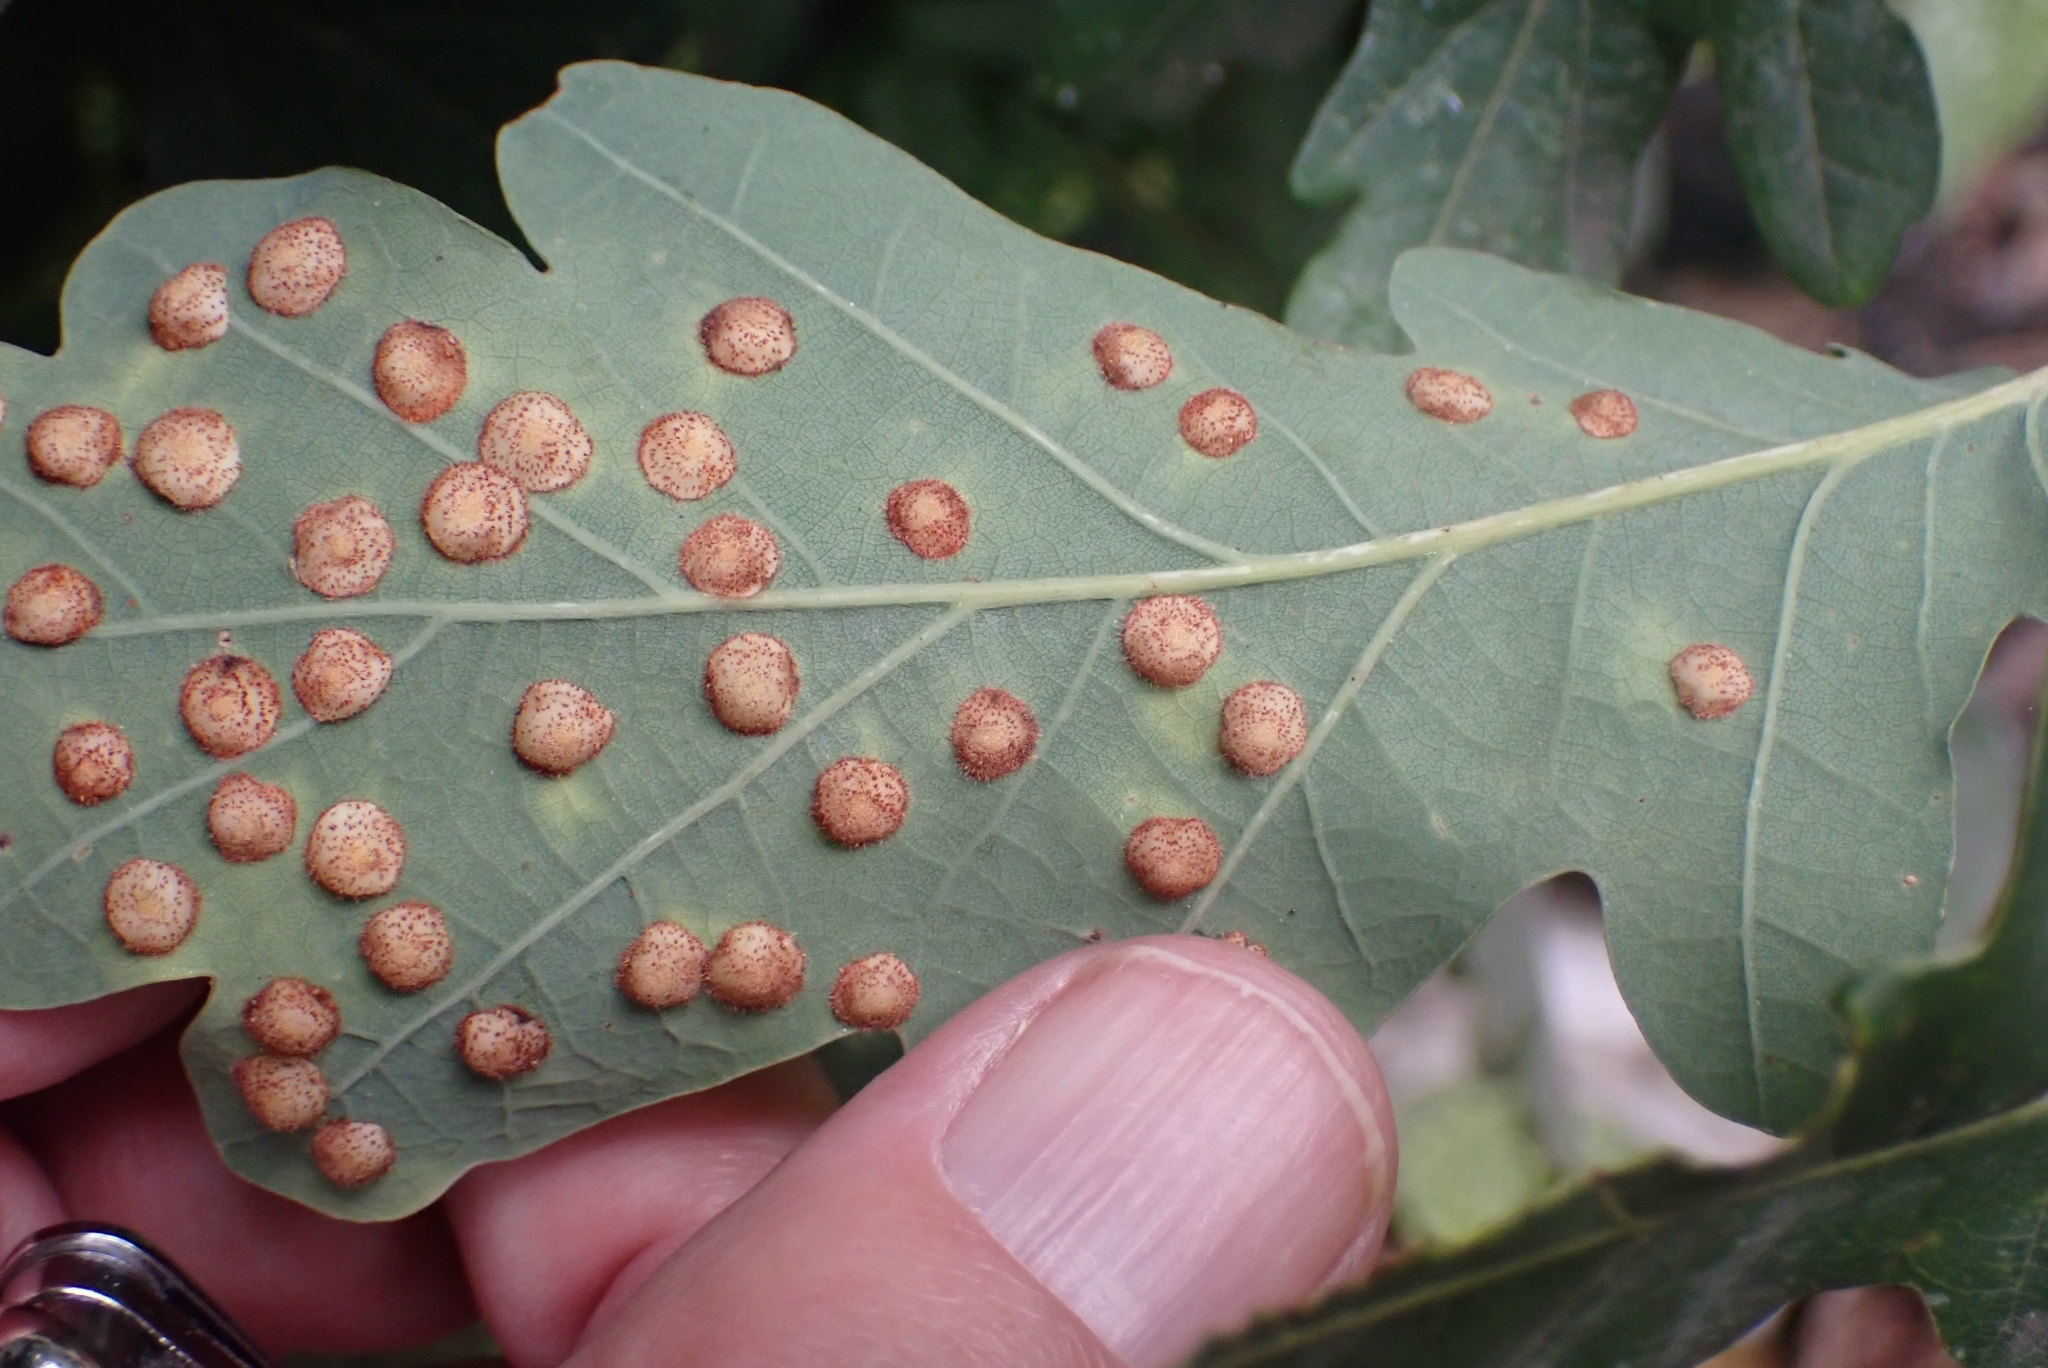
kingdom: Animalia
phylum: Arthropoda
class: Insecta
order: Hymenoptera
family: Cynipidae
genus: Neuroterus
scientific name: Neuroterus quercusbaccarum
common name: Common spangle gall
